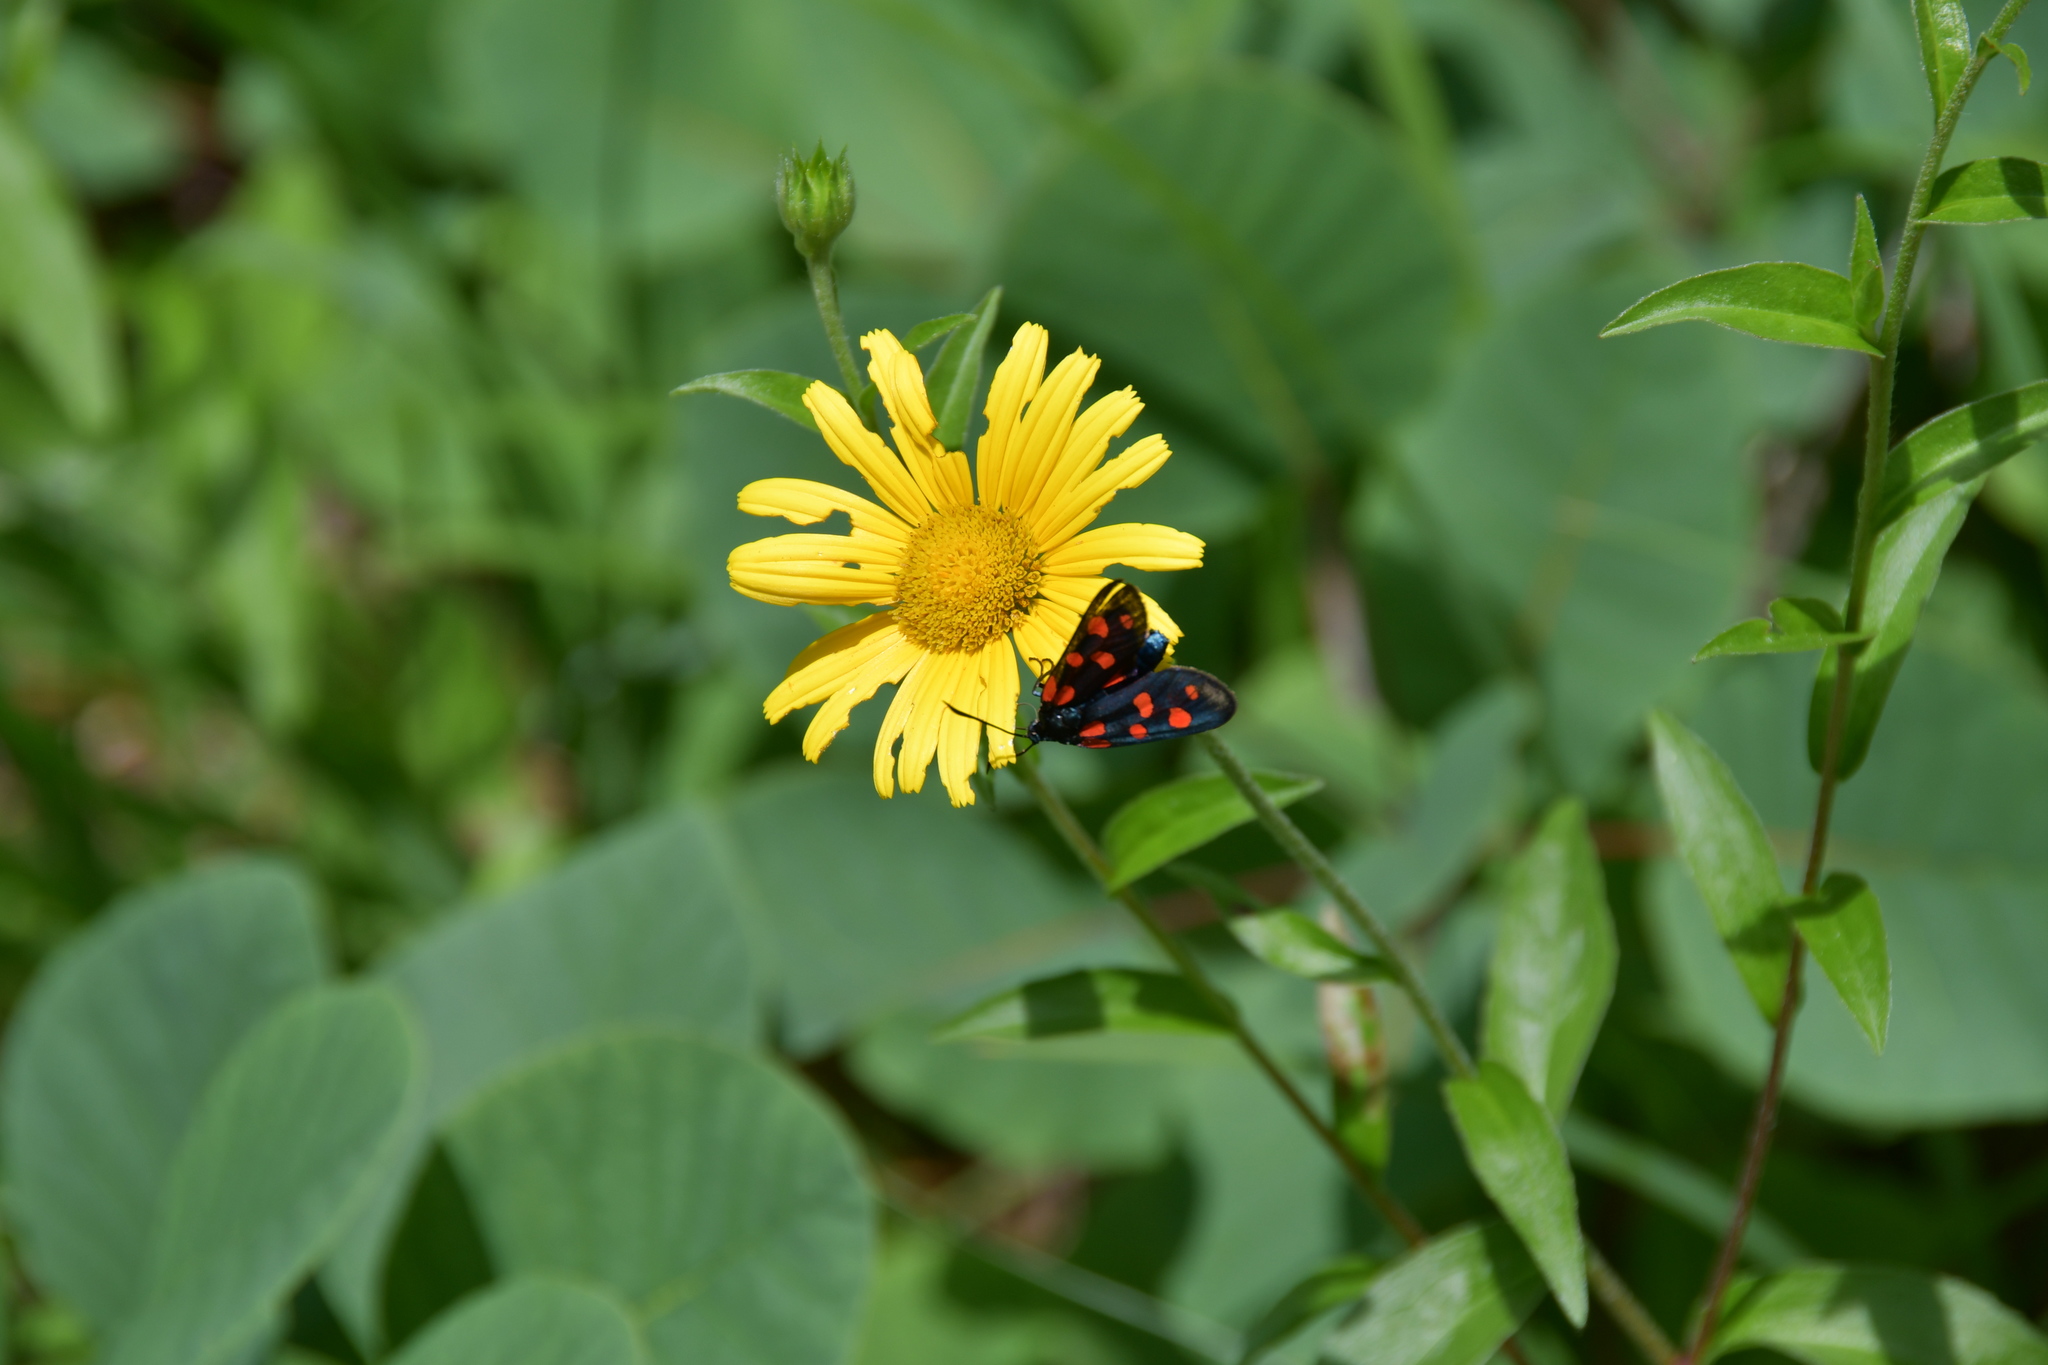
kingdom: Animalia
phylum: Arthropoda
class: Insecta
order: Lepidoptera
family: Zygaenidae
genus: Zygaena
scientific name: Zygaena transalpina
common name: Southern six spot burnet
